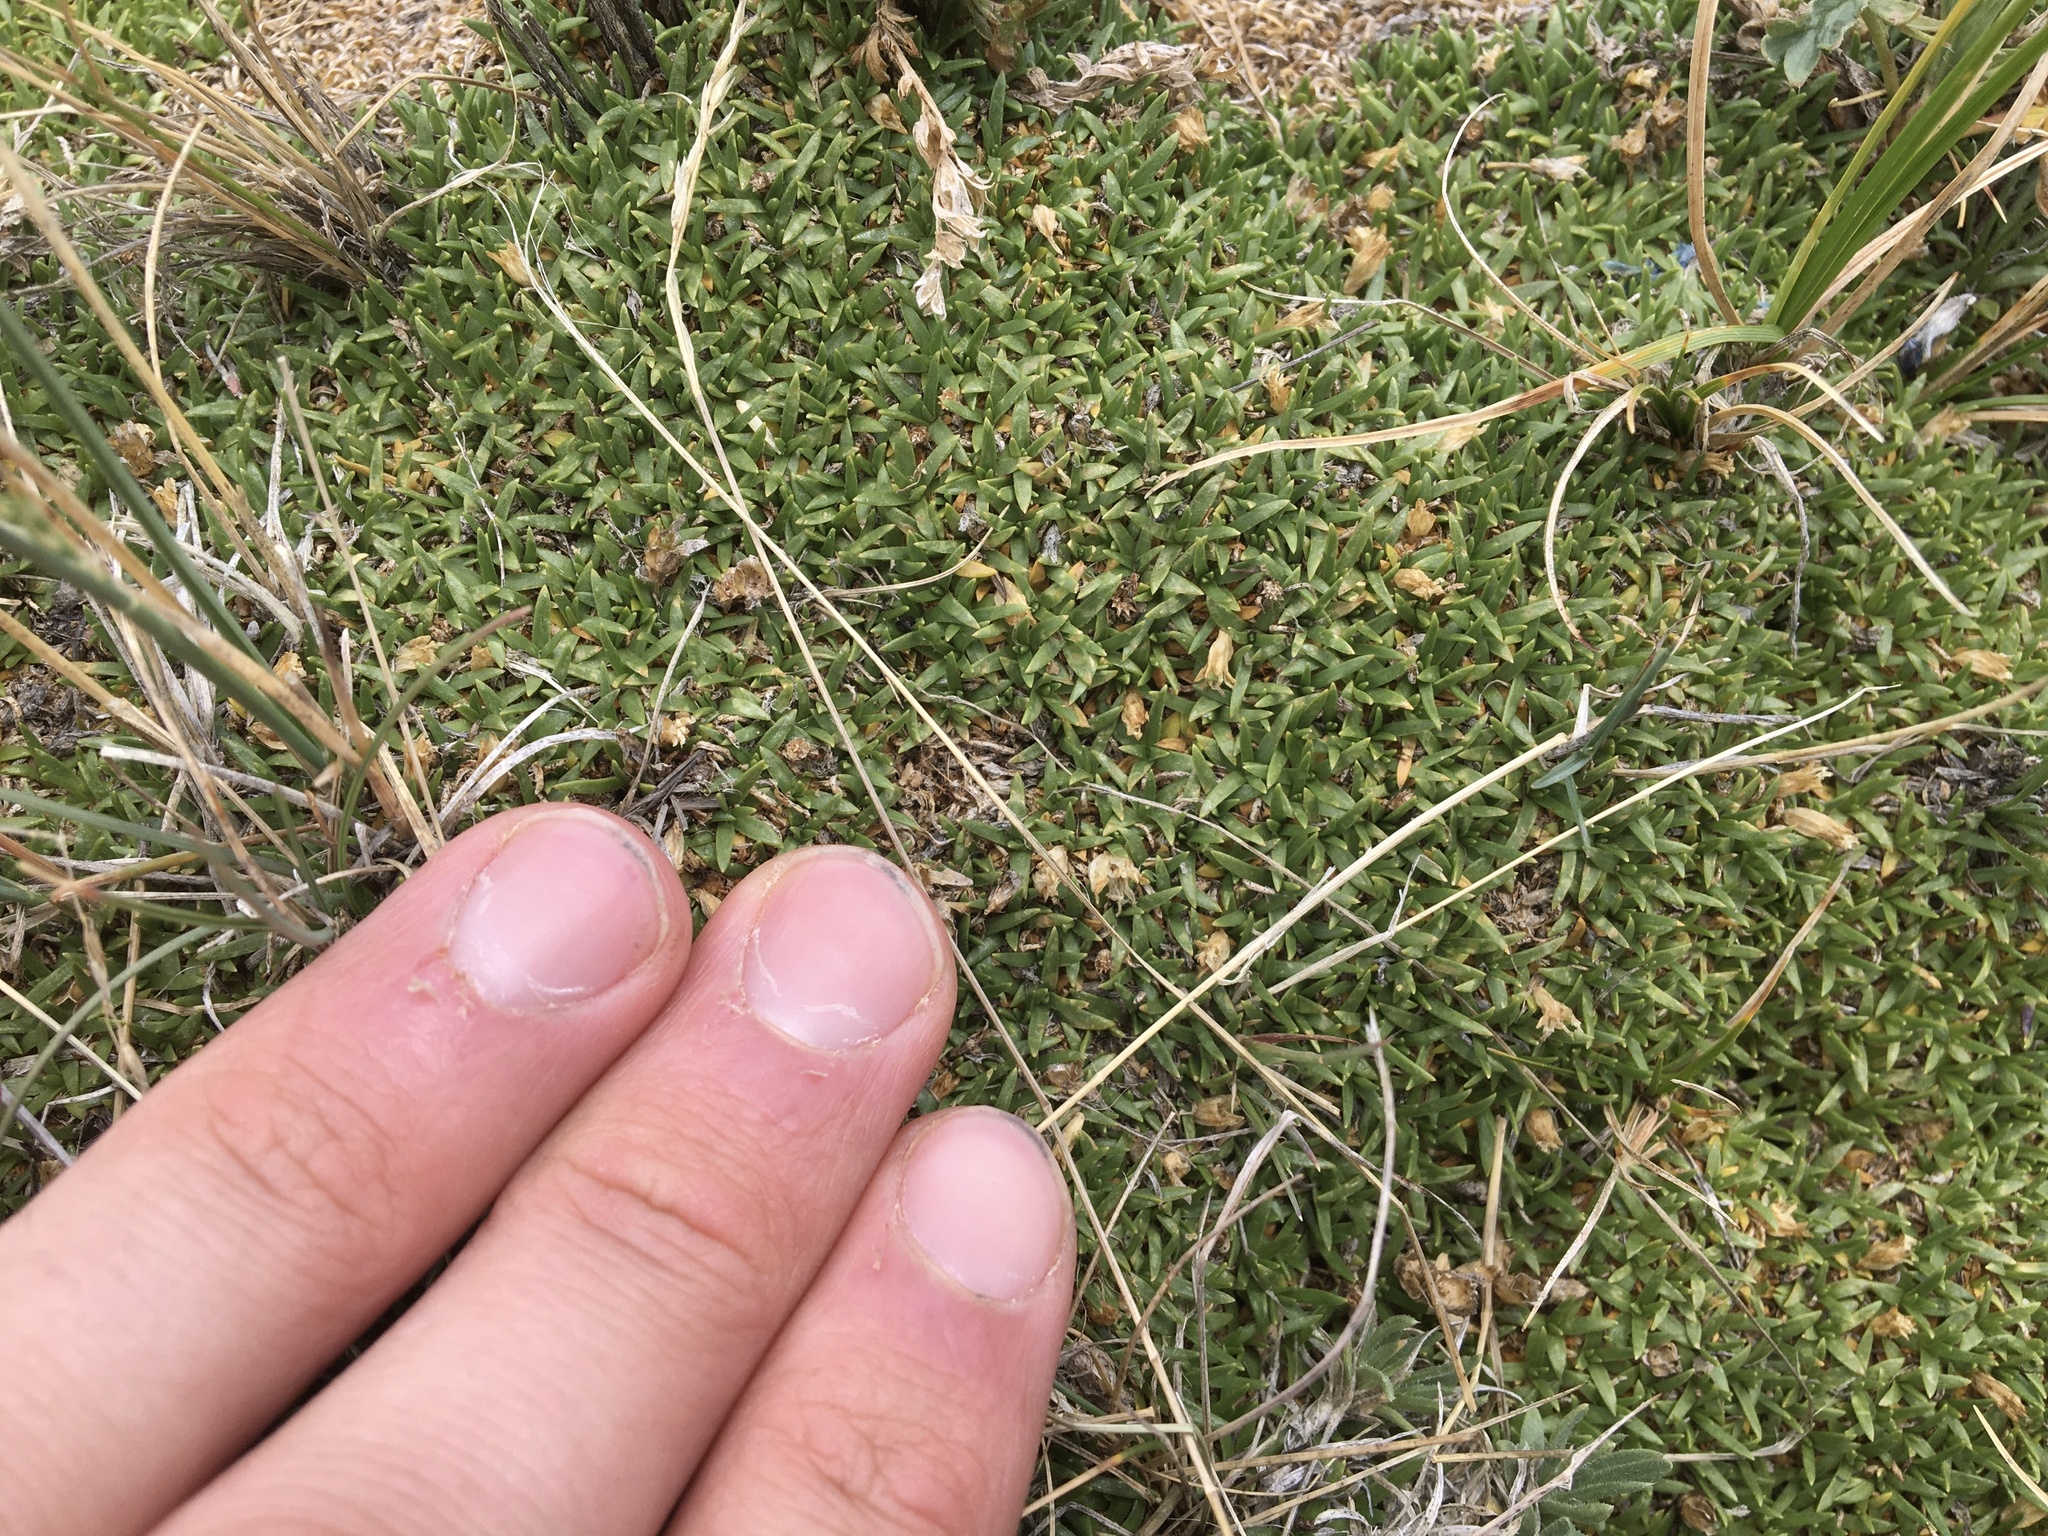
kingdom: Plantae
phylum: Tracheophyta
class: Magnoliopsida
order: Caryophyllales
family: Caryophyllaceae
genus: Silene
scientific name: Silene acaulis
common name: Moss campion
